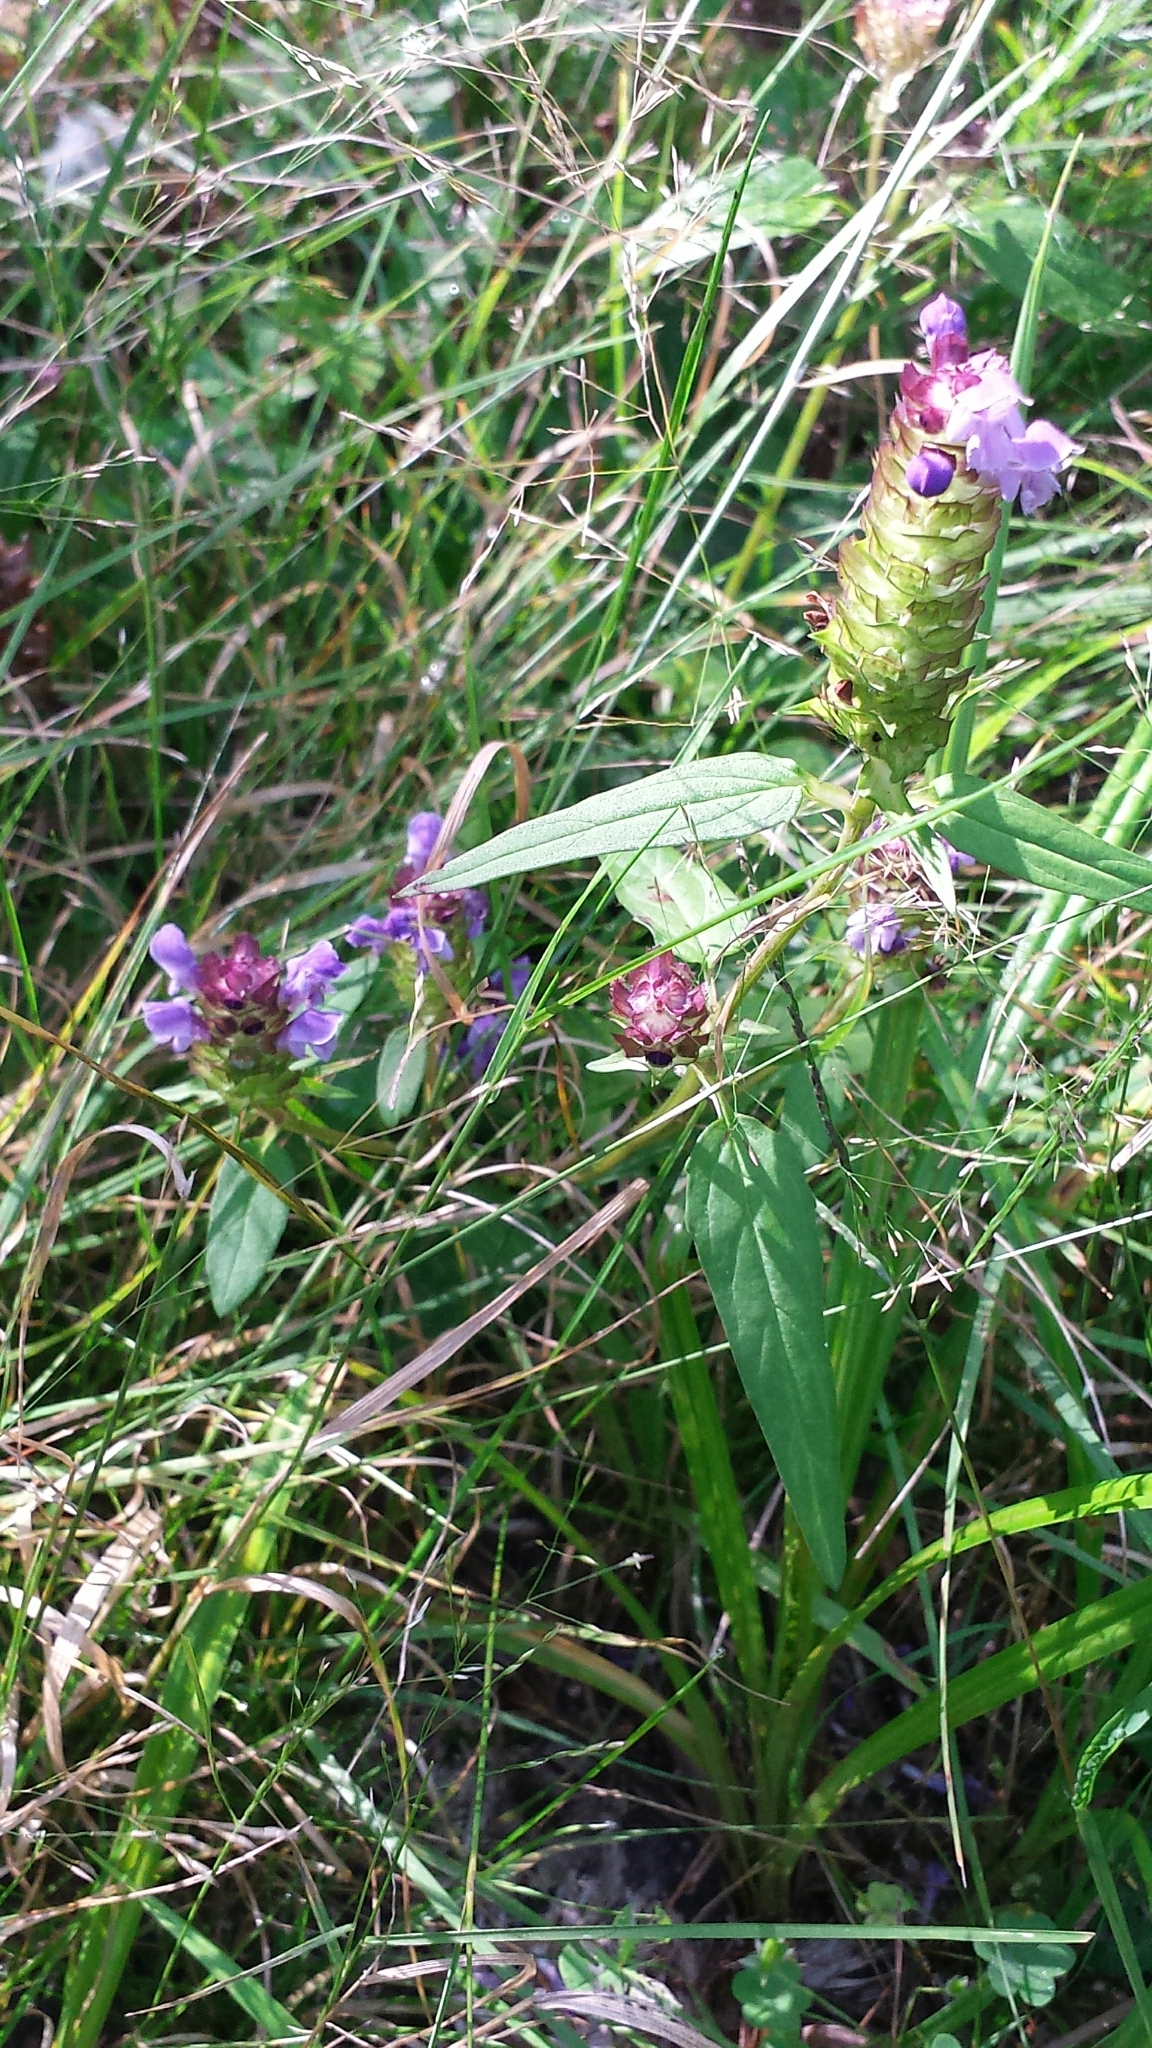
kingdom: Plantae
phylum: Tracheophyta
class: Magnoliopsida
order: Lamiales
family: Lamiaceae
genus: Prunella
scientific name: Prunella vulgaris
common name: Heal-all
